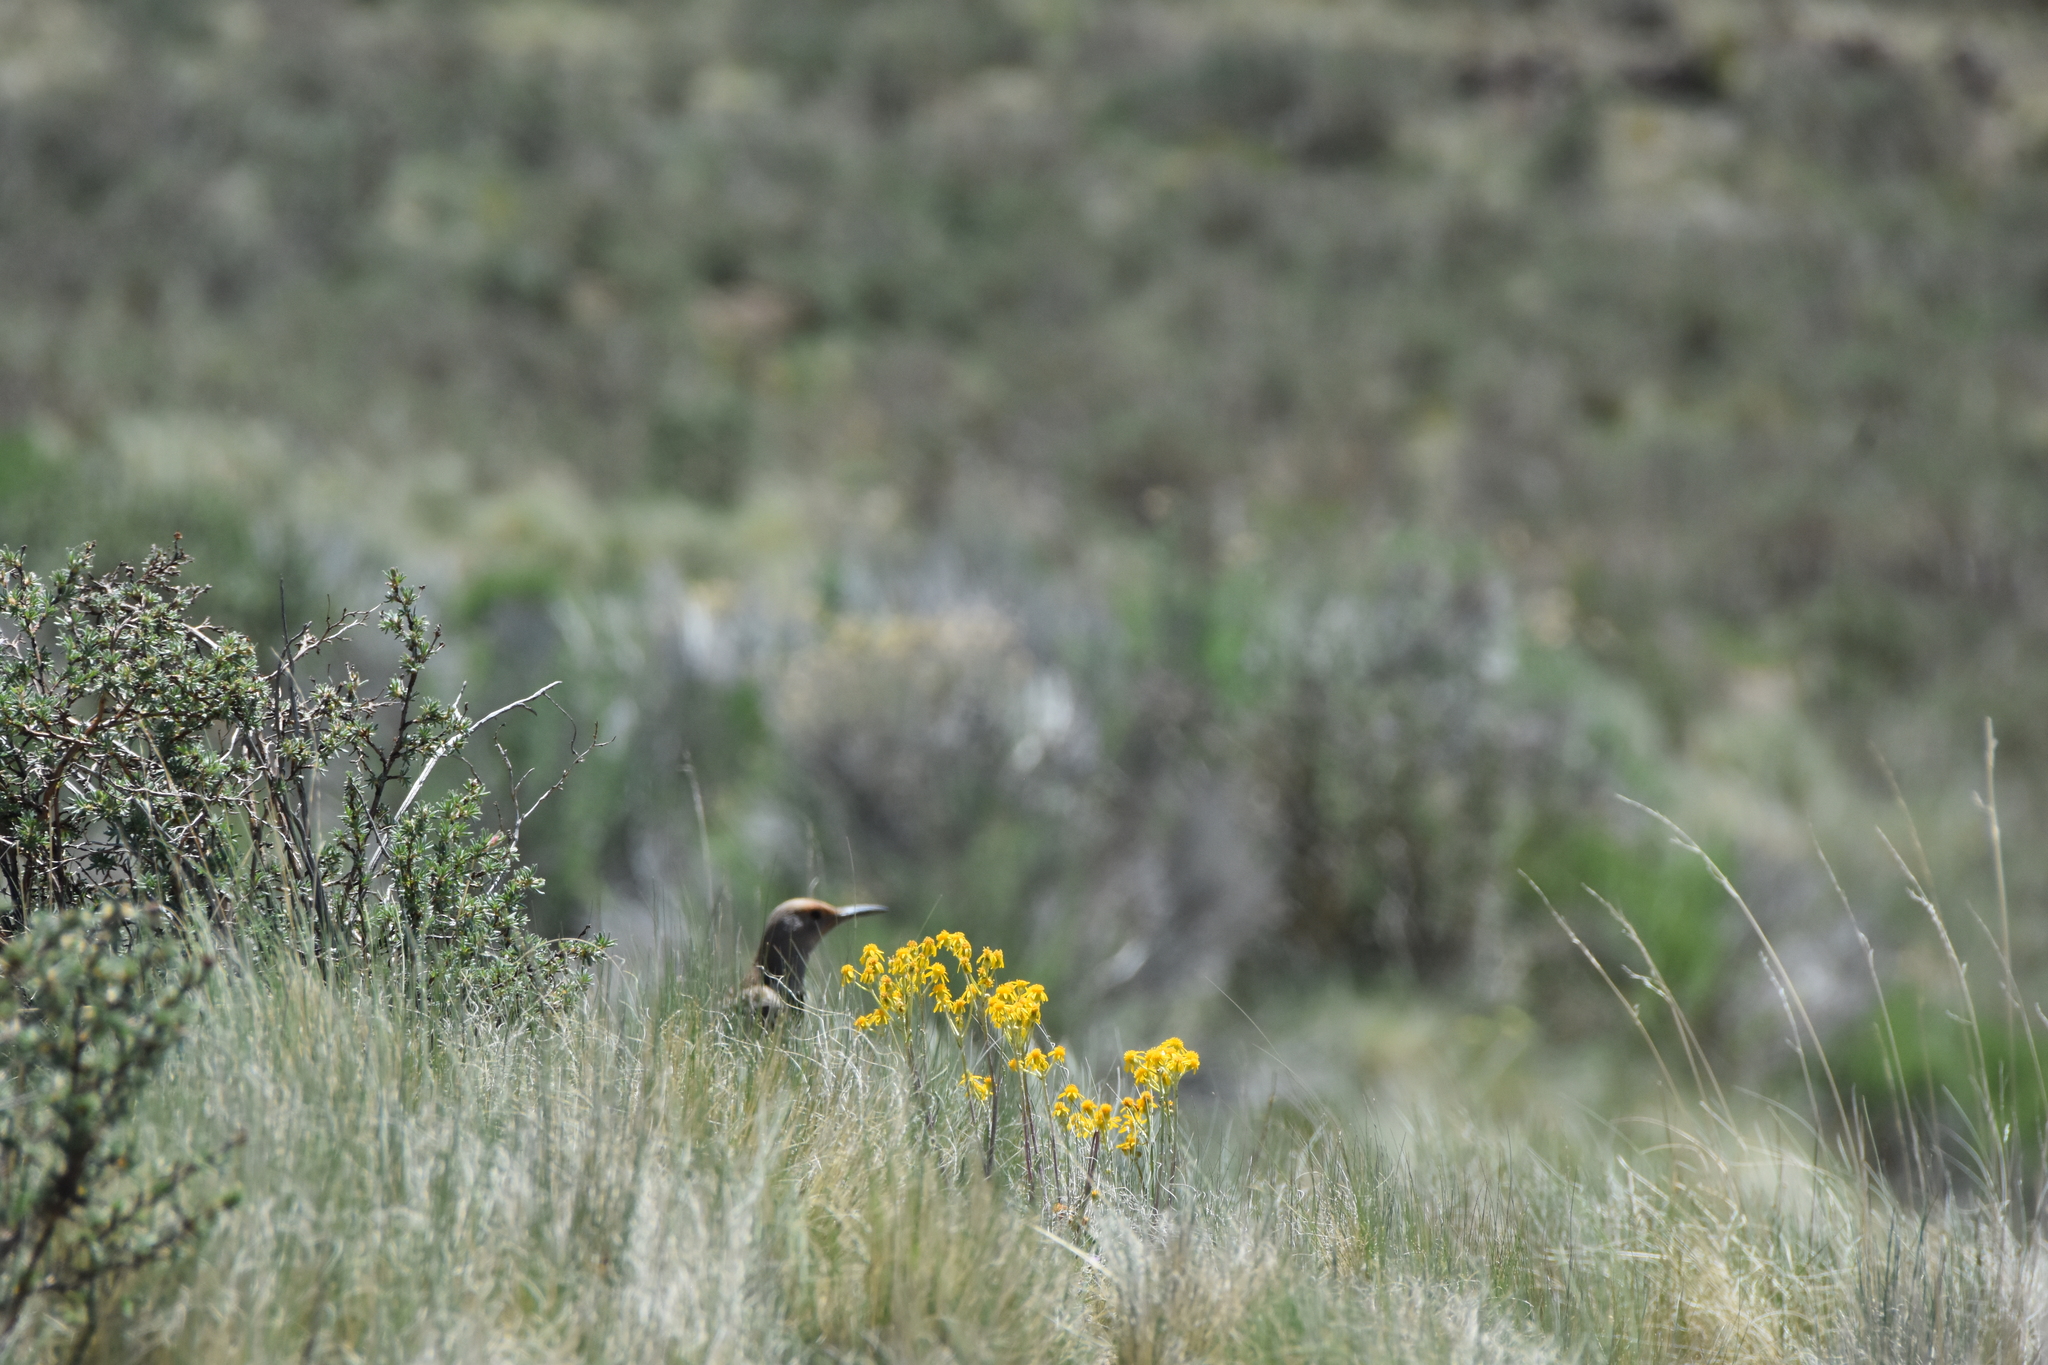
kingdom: Animalia
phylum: Chordata
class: Aves
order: Piciformes
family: Picidae
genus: Colaptes
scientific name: Colaptes auratus
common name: Northern flicker
